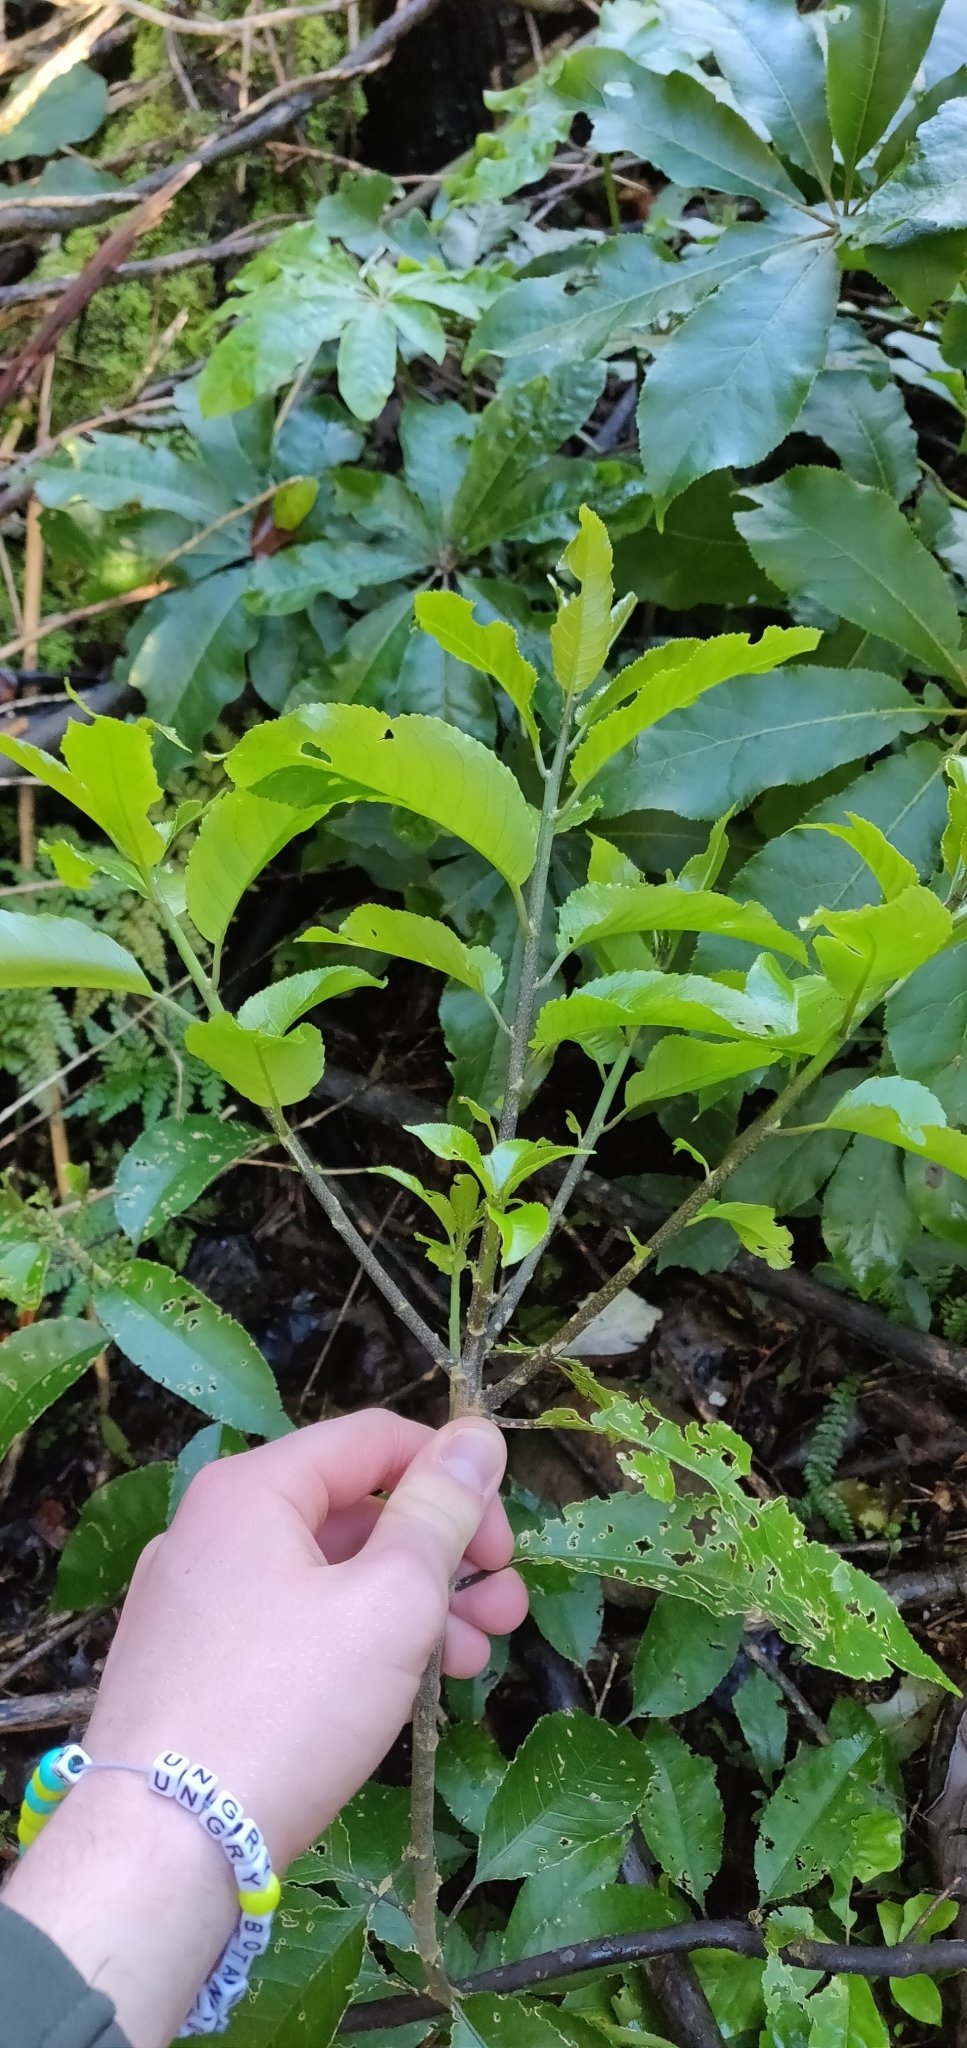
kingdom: Plantae
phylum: Tracheophyta
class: Magnoliopsida
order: Malpighiales
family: Violaceae
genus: Melicytus
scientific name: Melicytus ramiflorus
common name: Mahoe
